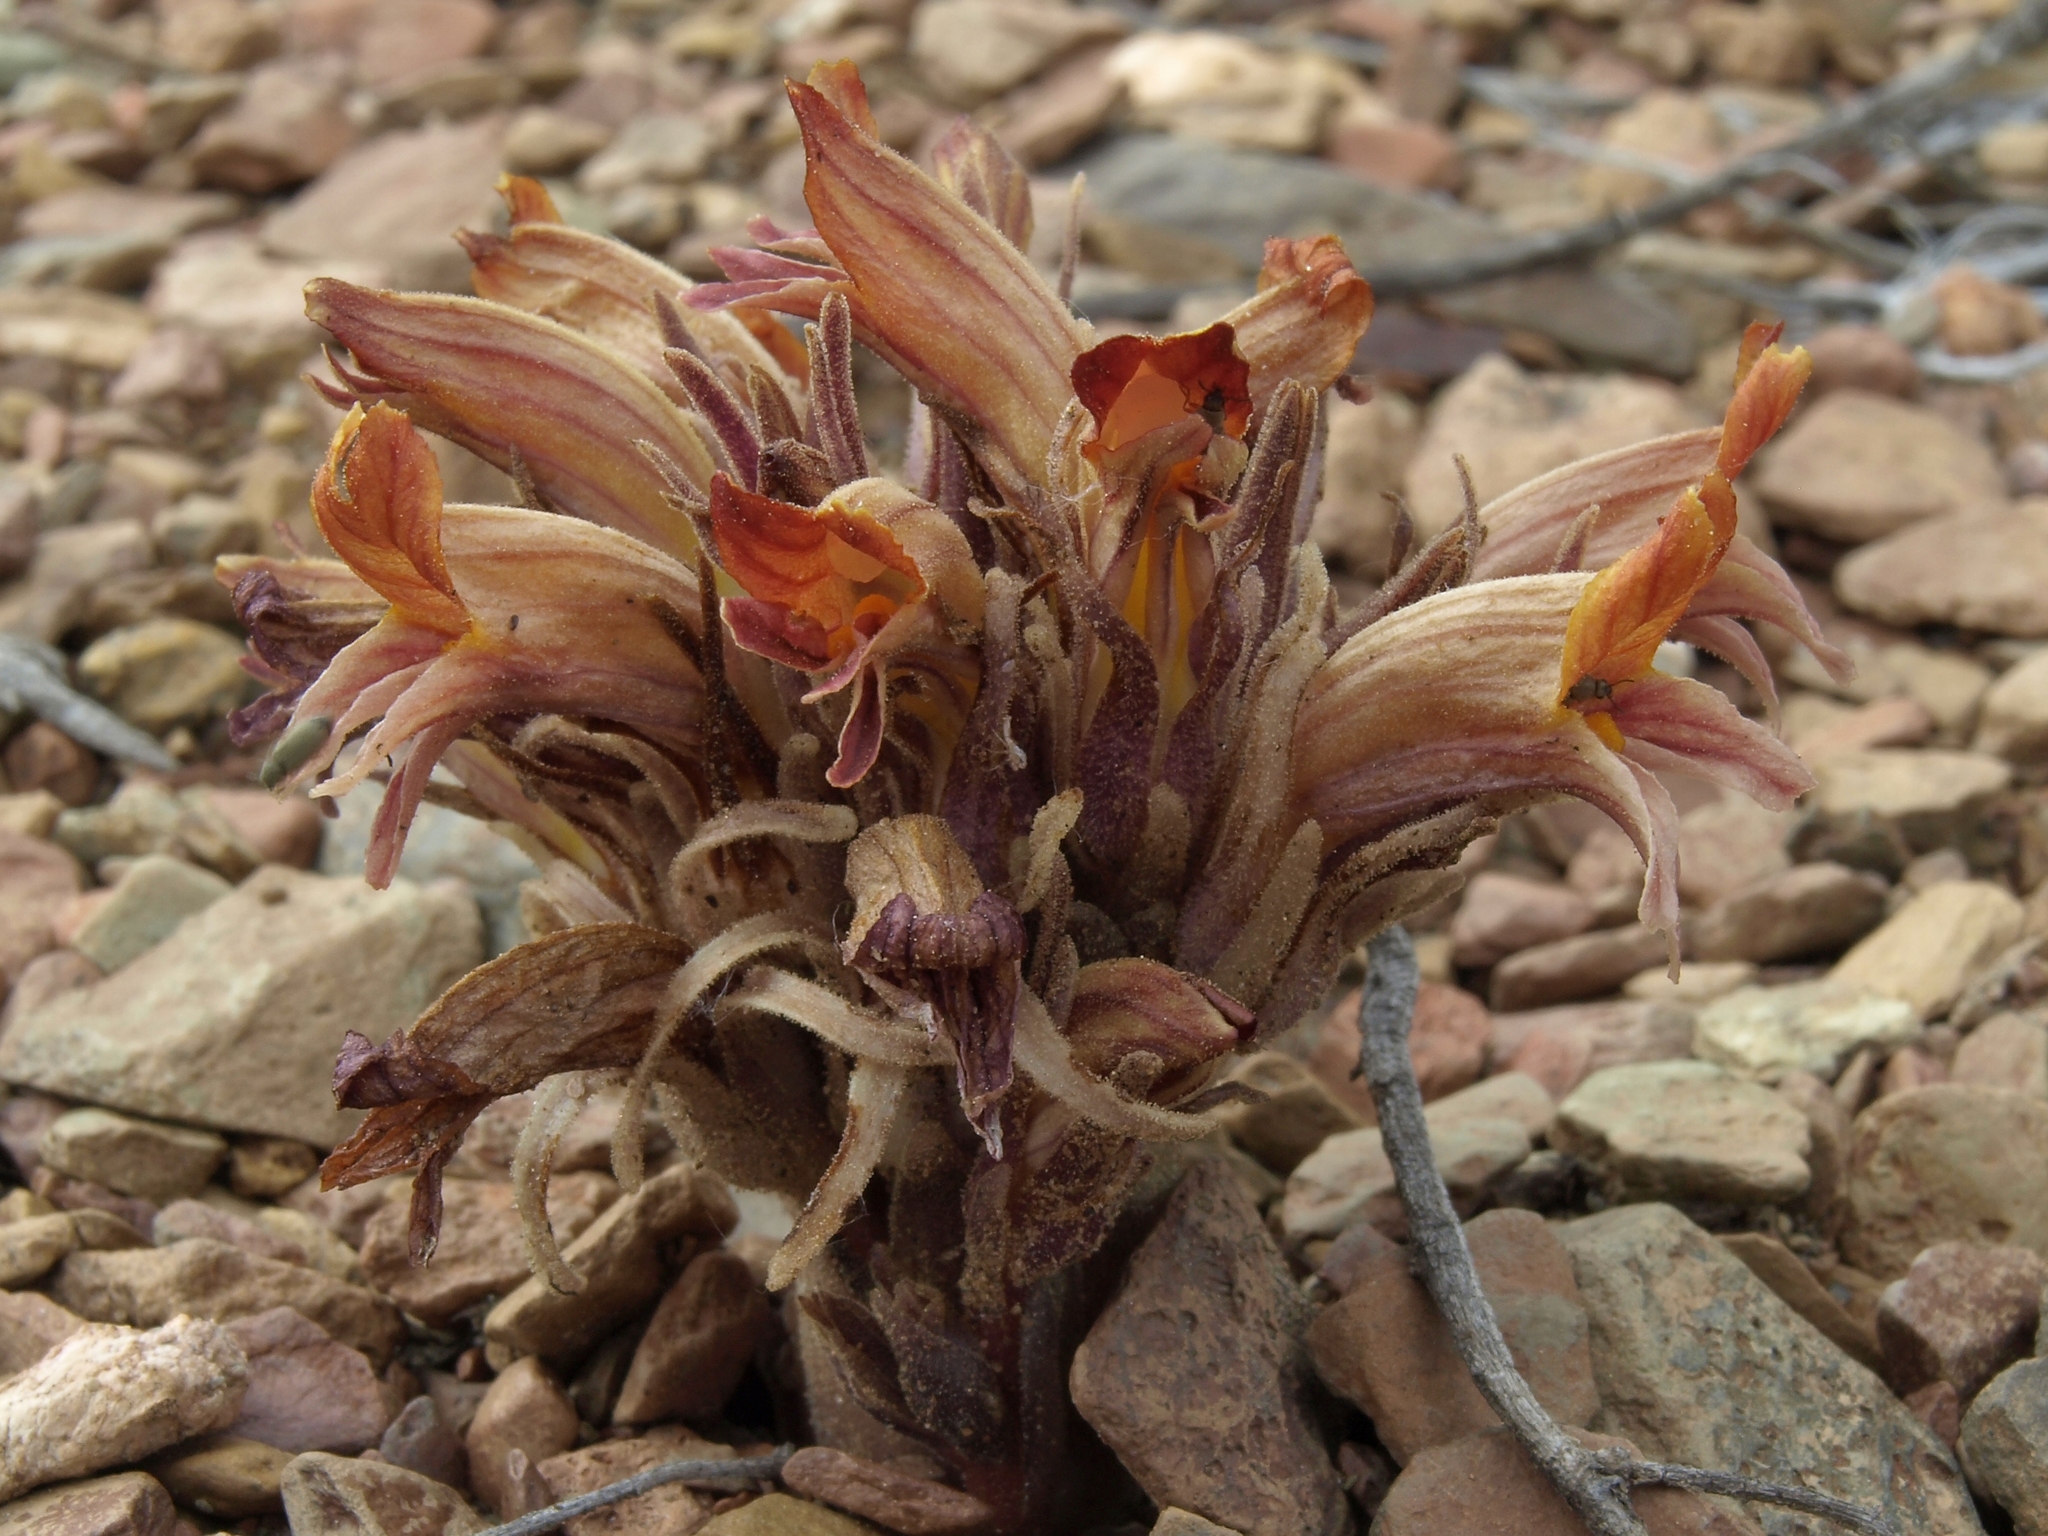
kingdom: Plantae
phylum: Tracheophyta
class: Magnoliopsida
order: Lamiales
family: Orobanchaceae
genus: Aphyllon
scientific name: Aphyllon corymbosum
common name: Flat-top broomrape
